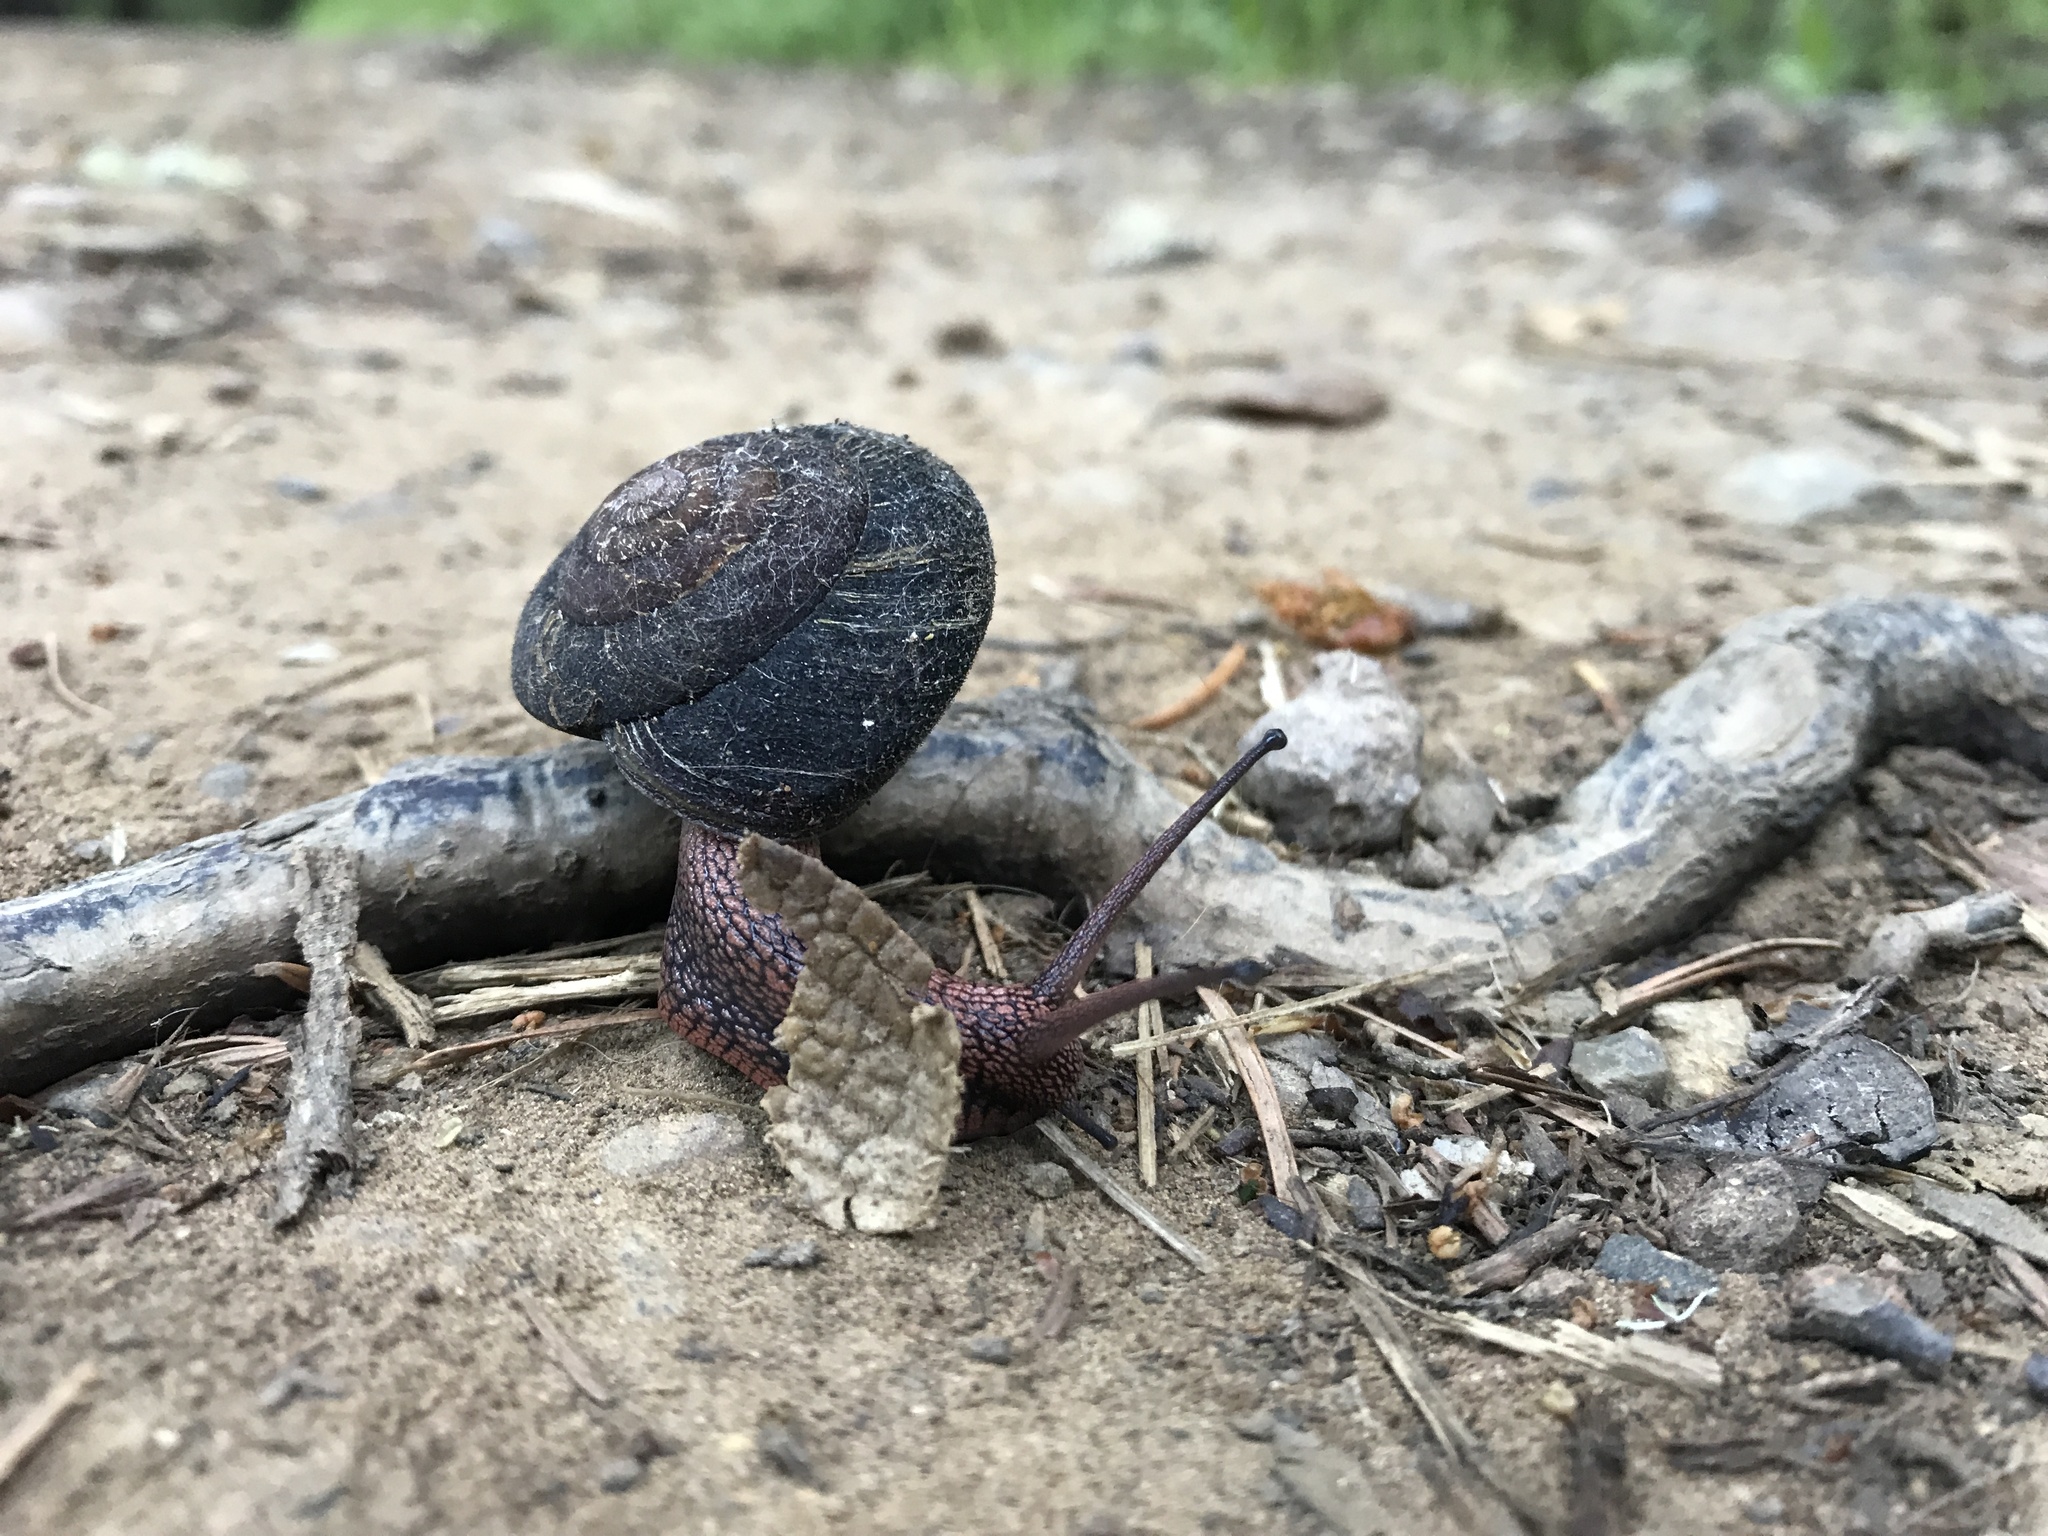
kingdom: Animalia
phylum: Mollusca
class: Gastropoda
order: Stylommatophora
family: Xanthonychidae
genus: Monadenia
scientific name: Monadenia infumata
